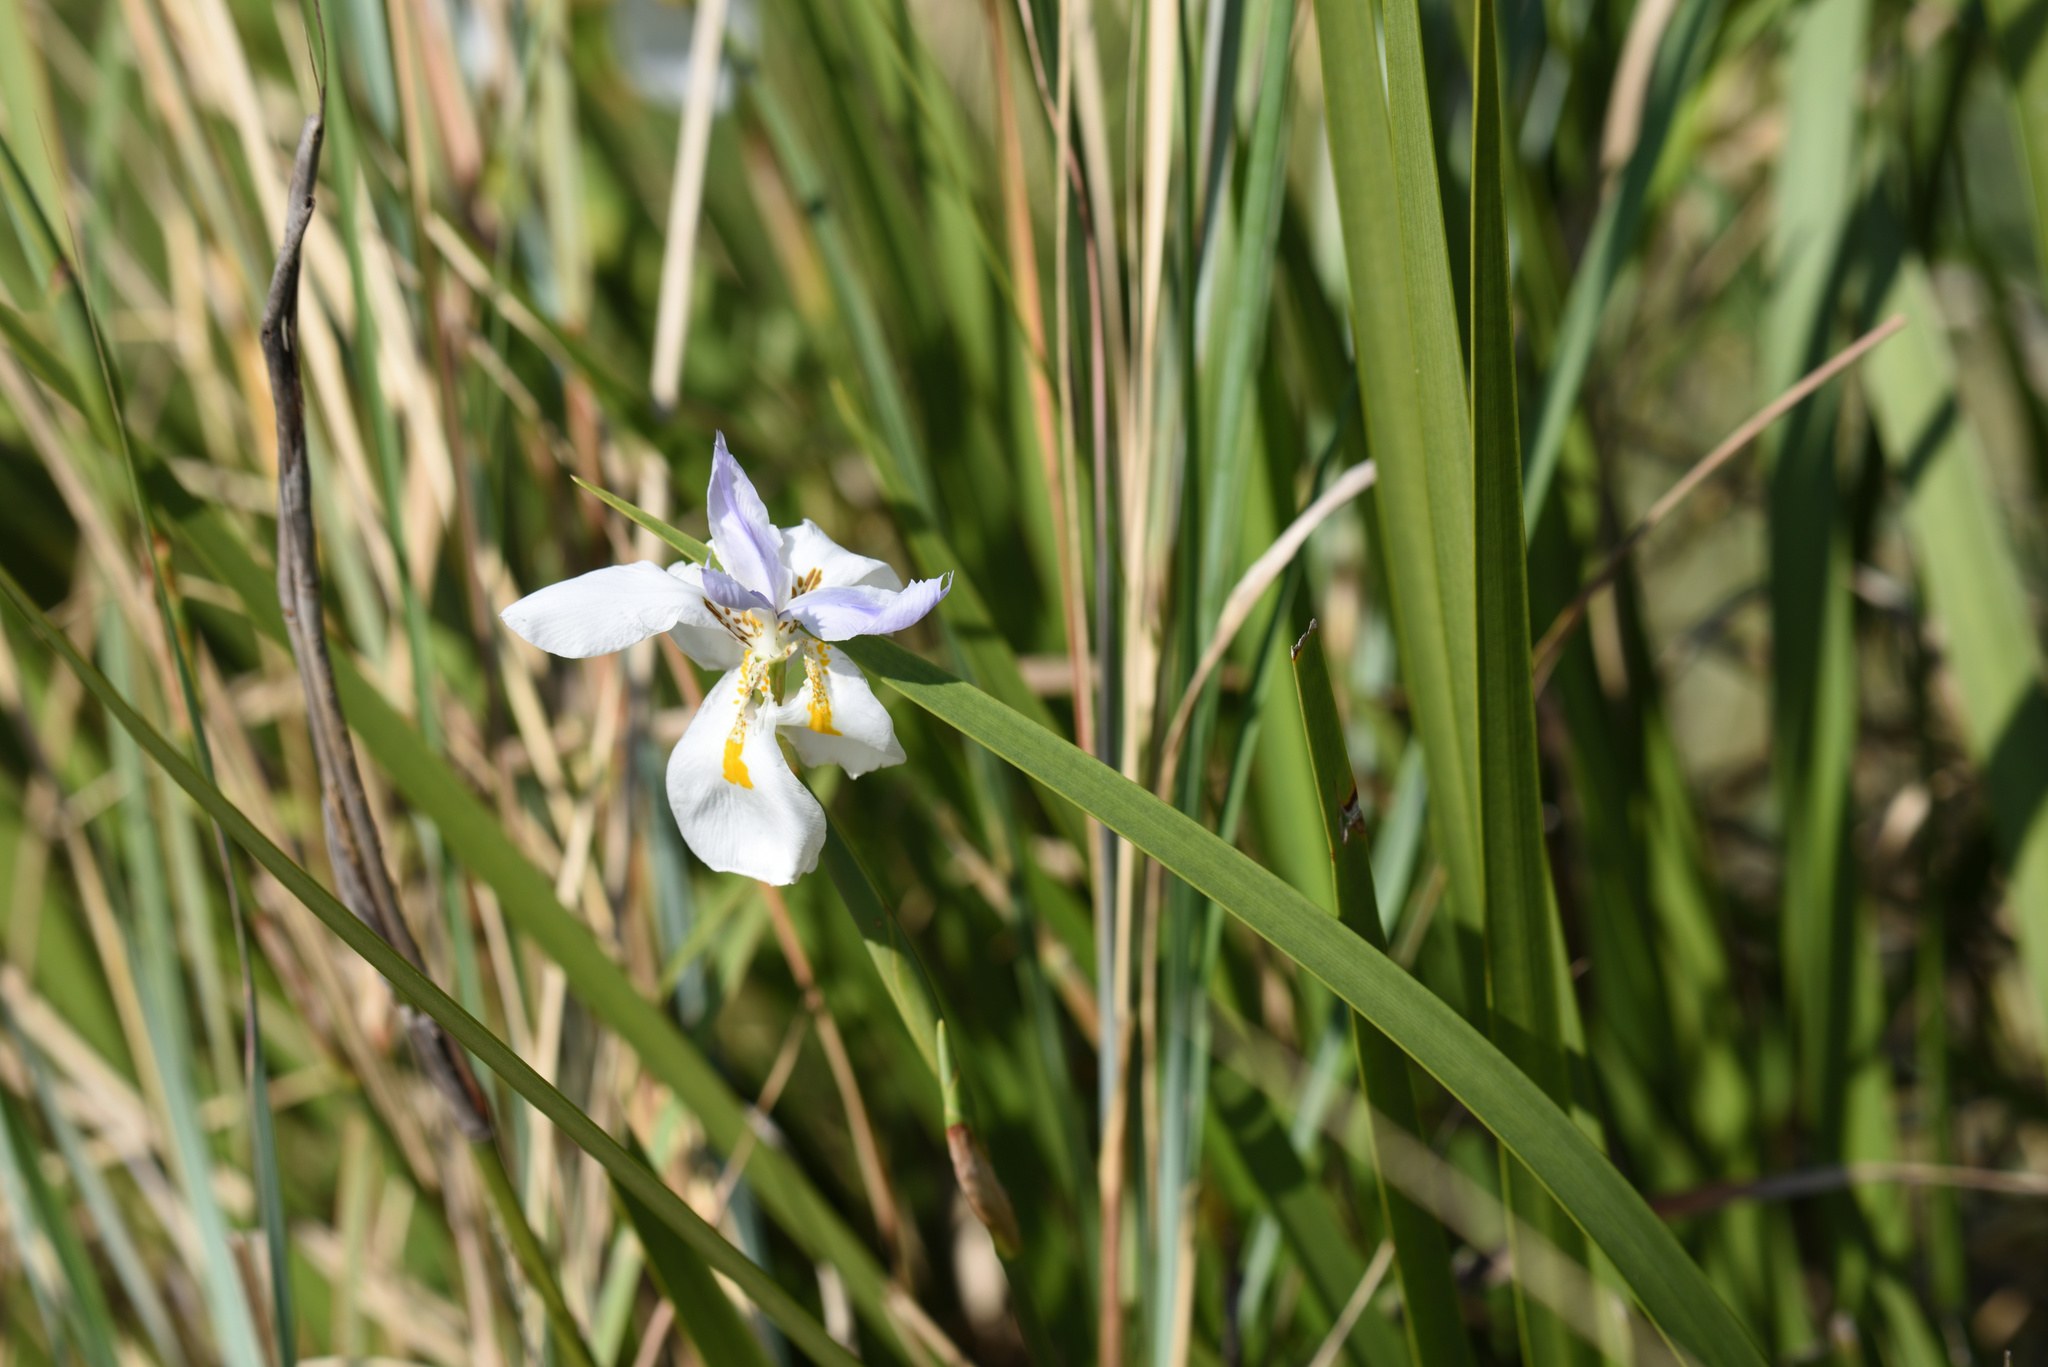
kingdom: Plantae
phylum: Tracheophyta
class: Liliopsida
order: Asparagales
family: Iridaceae
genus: Dietes
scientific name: Dietes grandiflora
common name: Wild iris
